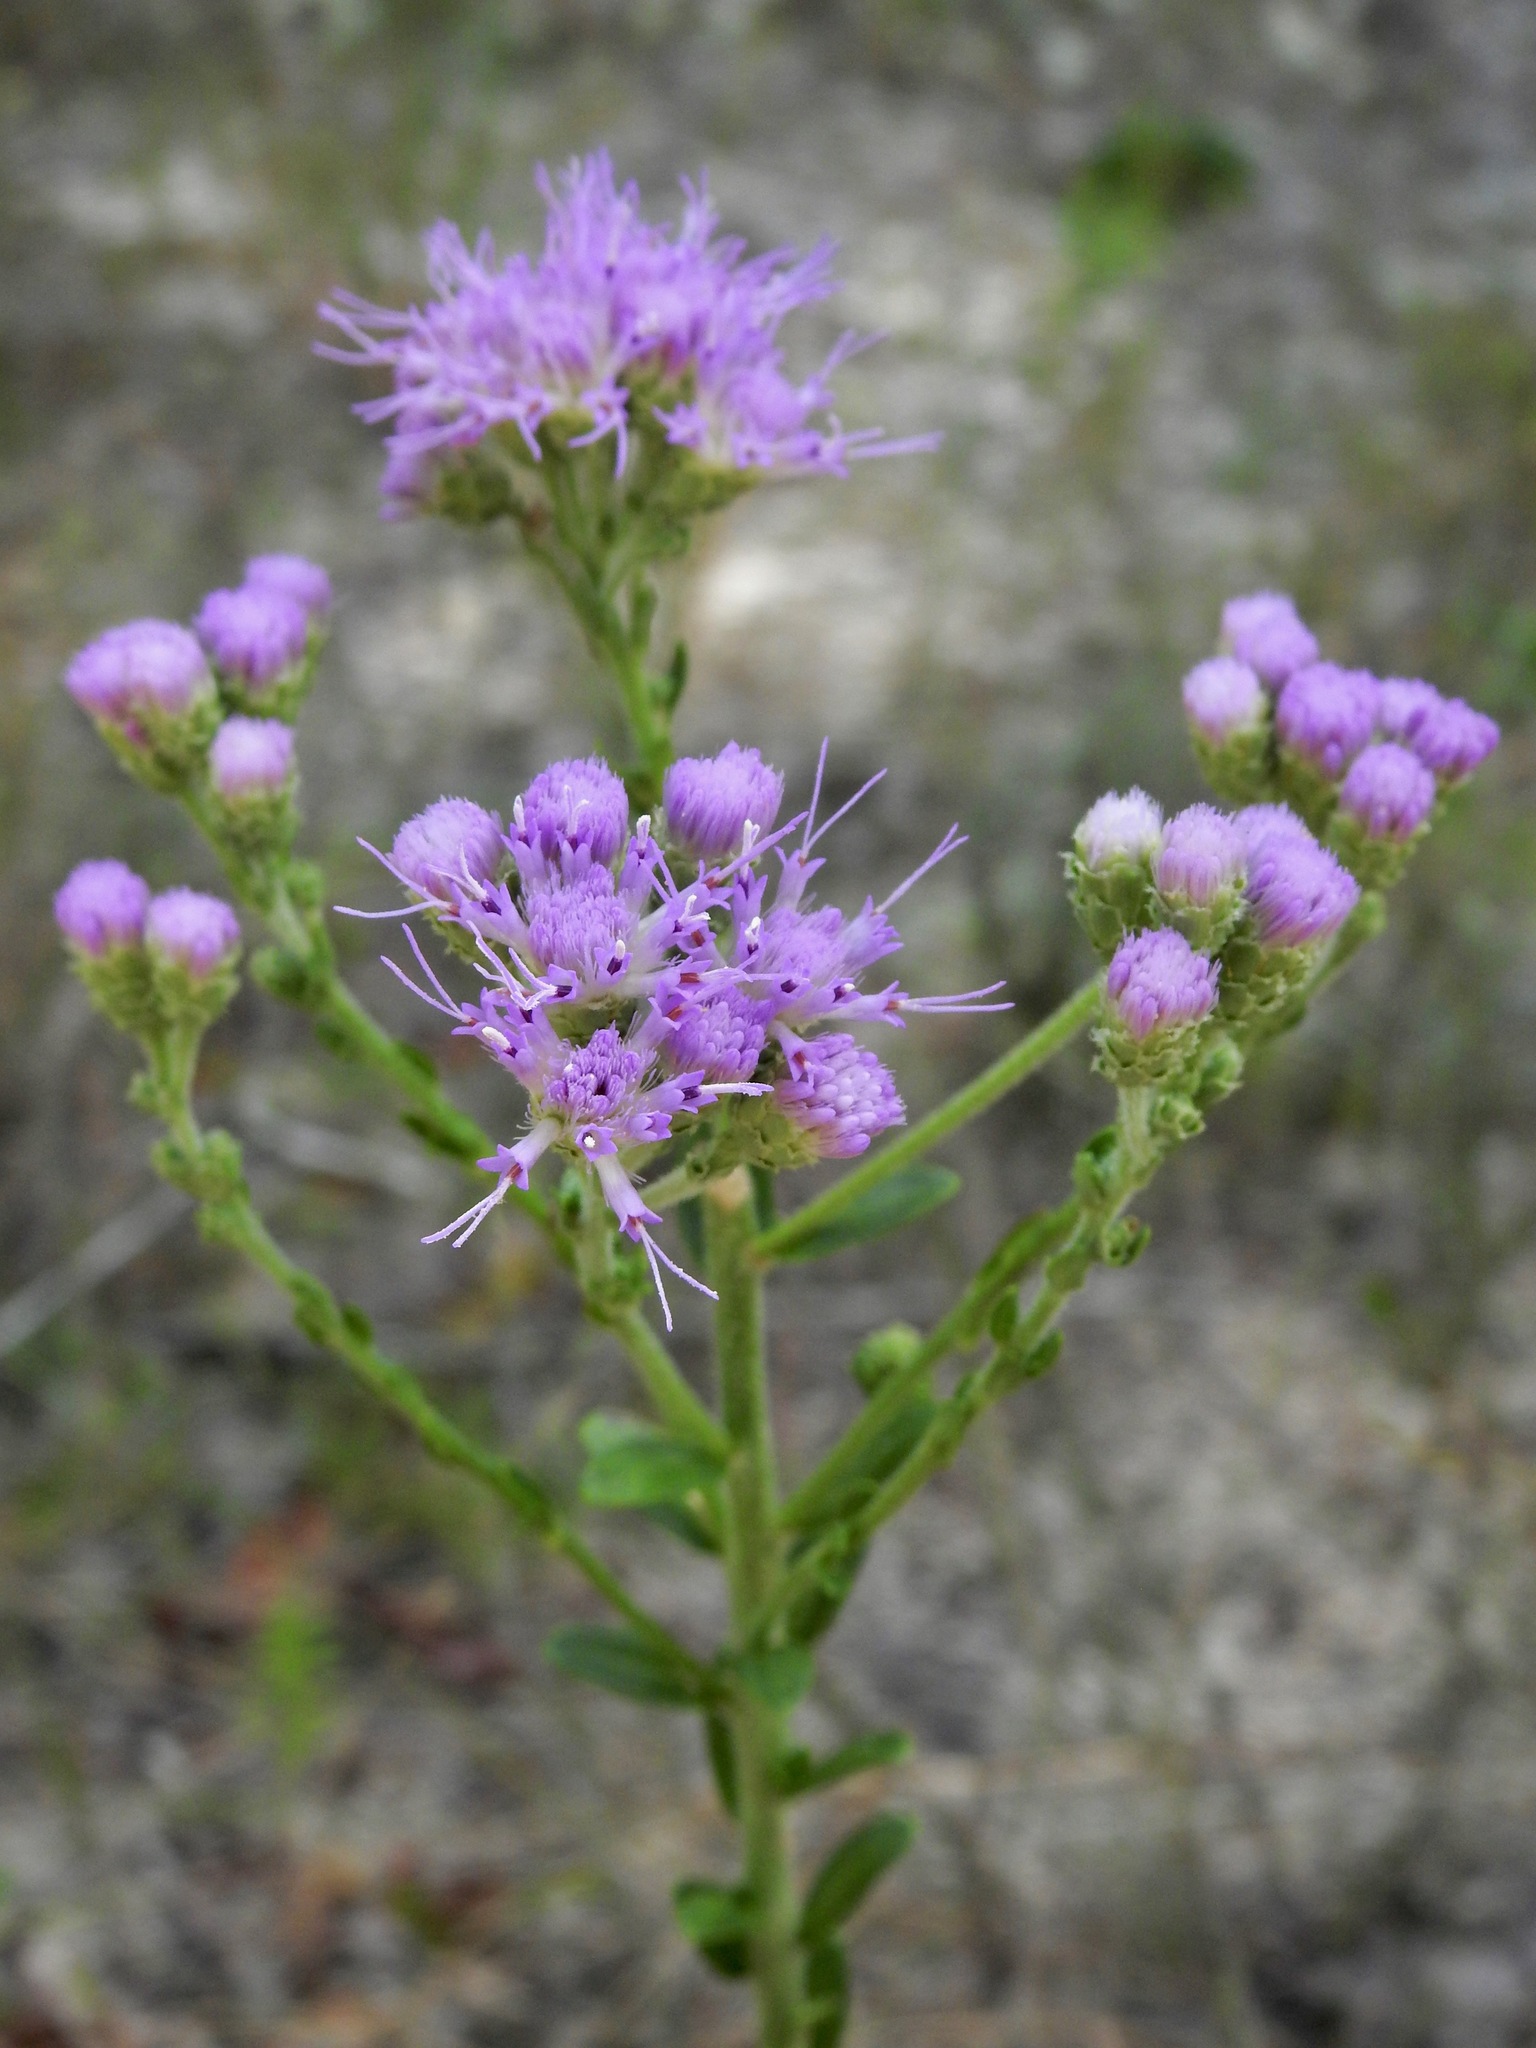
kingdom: Plantae
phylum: Tracheophyta
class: Magnoliopsida
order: Asterales
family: Asteraceae
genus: Carphephorus
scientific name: Carphephorus corymbosus
